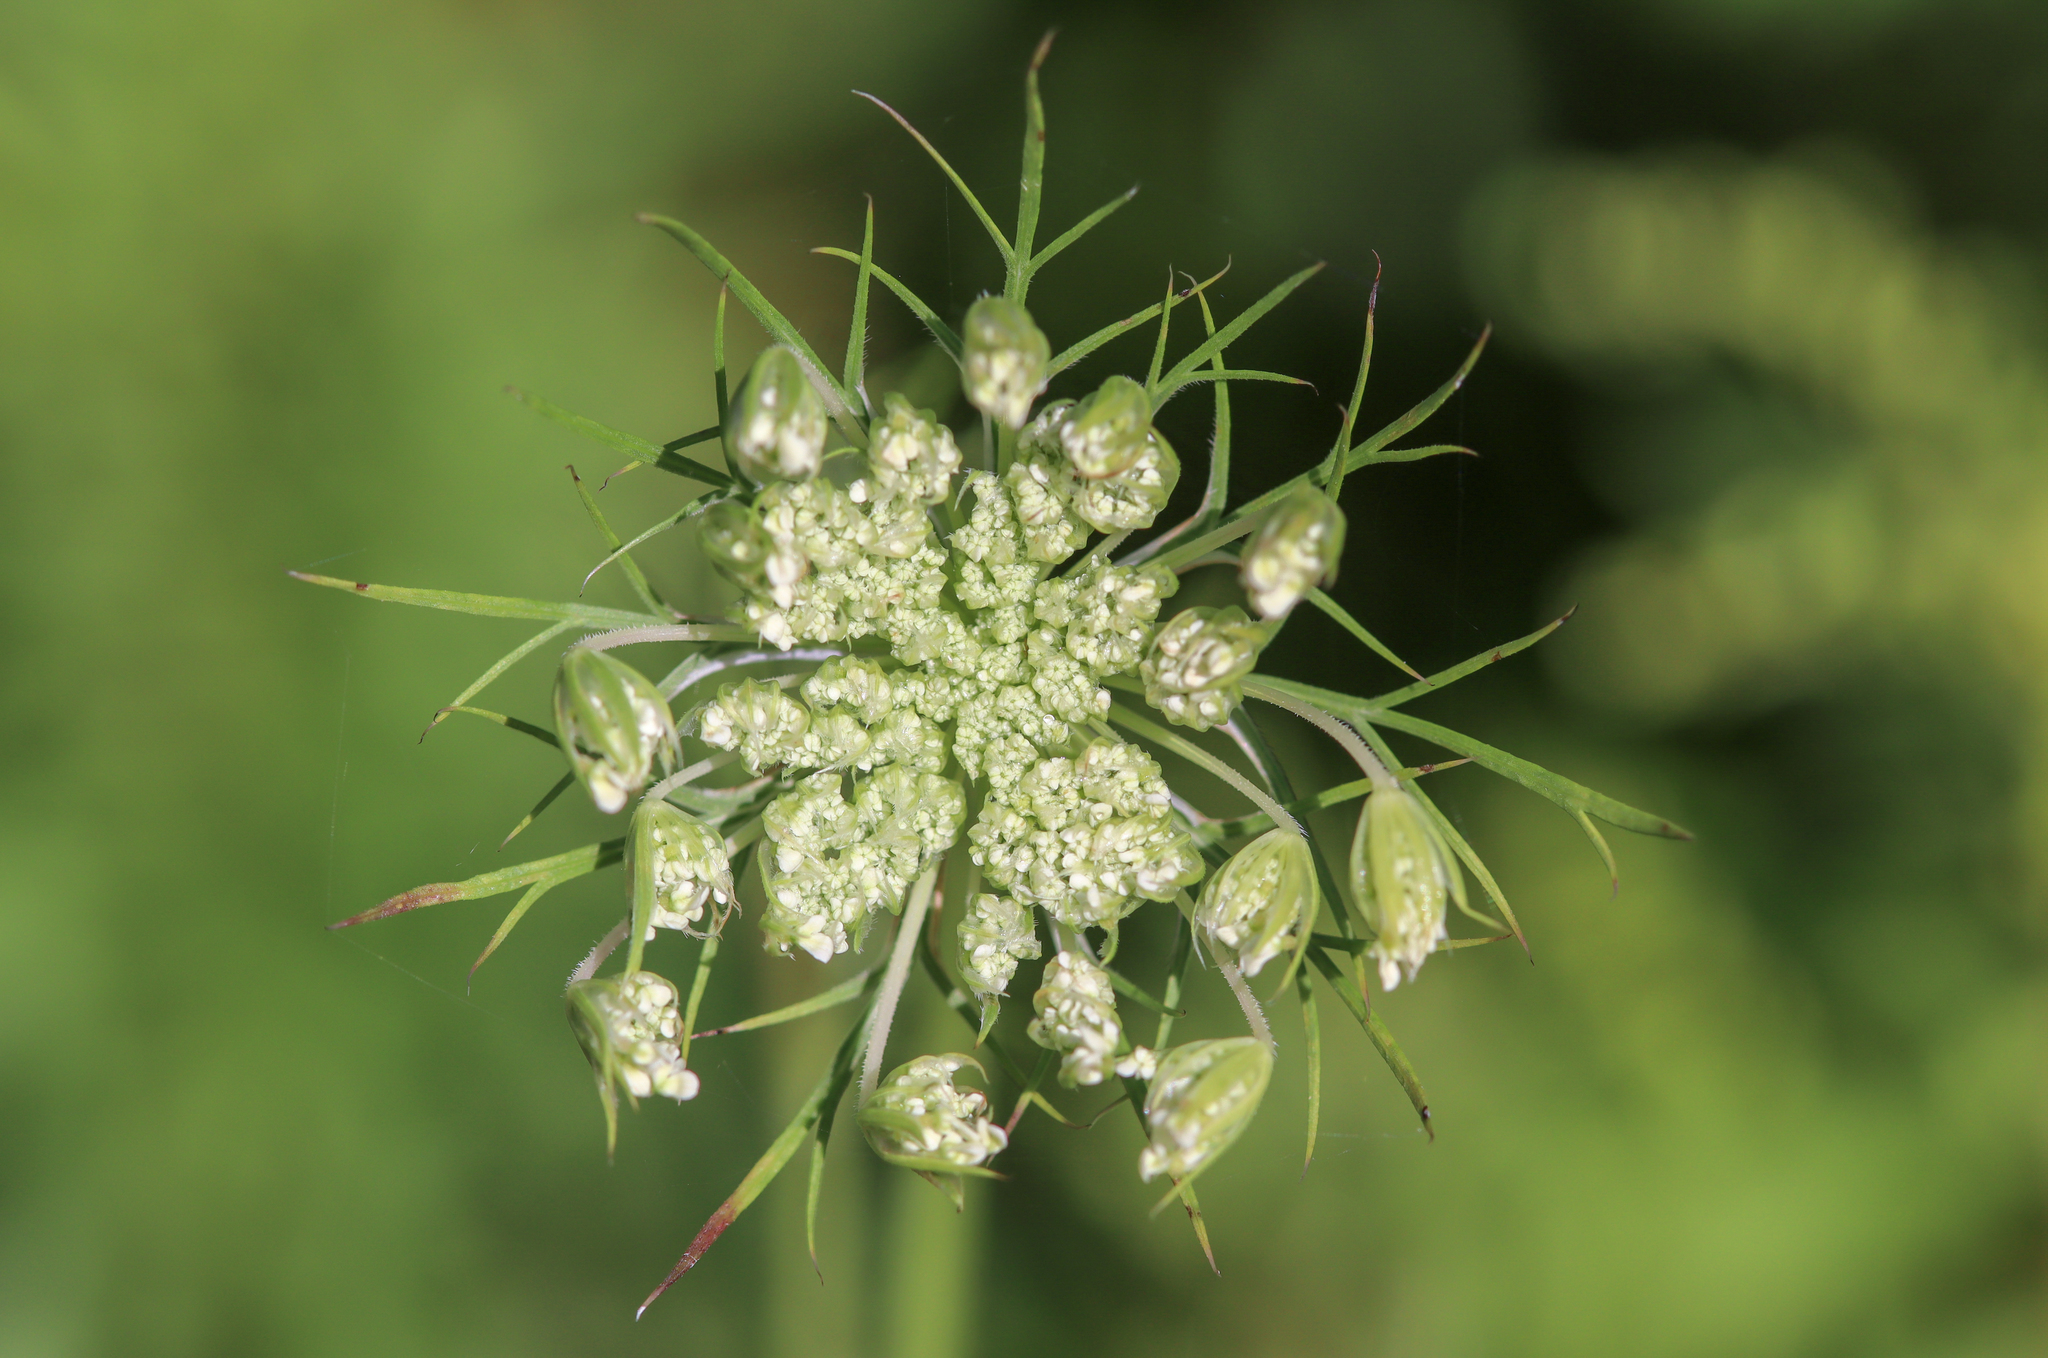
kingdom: Plantae
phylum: Tracheophyta
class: Magnoliopsida
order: Apiales
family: Apiaceae
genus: Daucus
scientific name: Daucus carota
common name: Wild carrot
